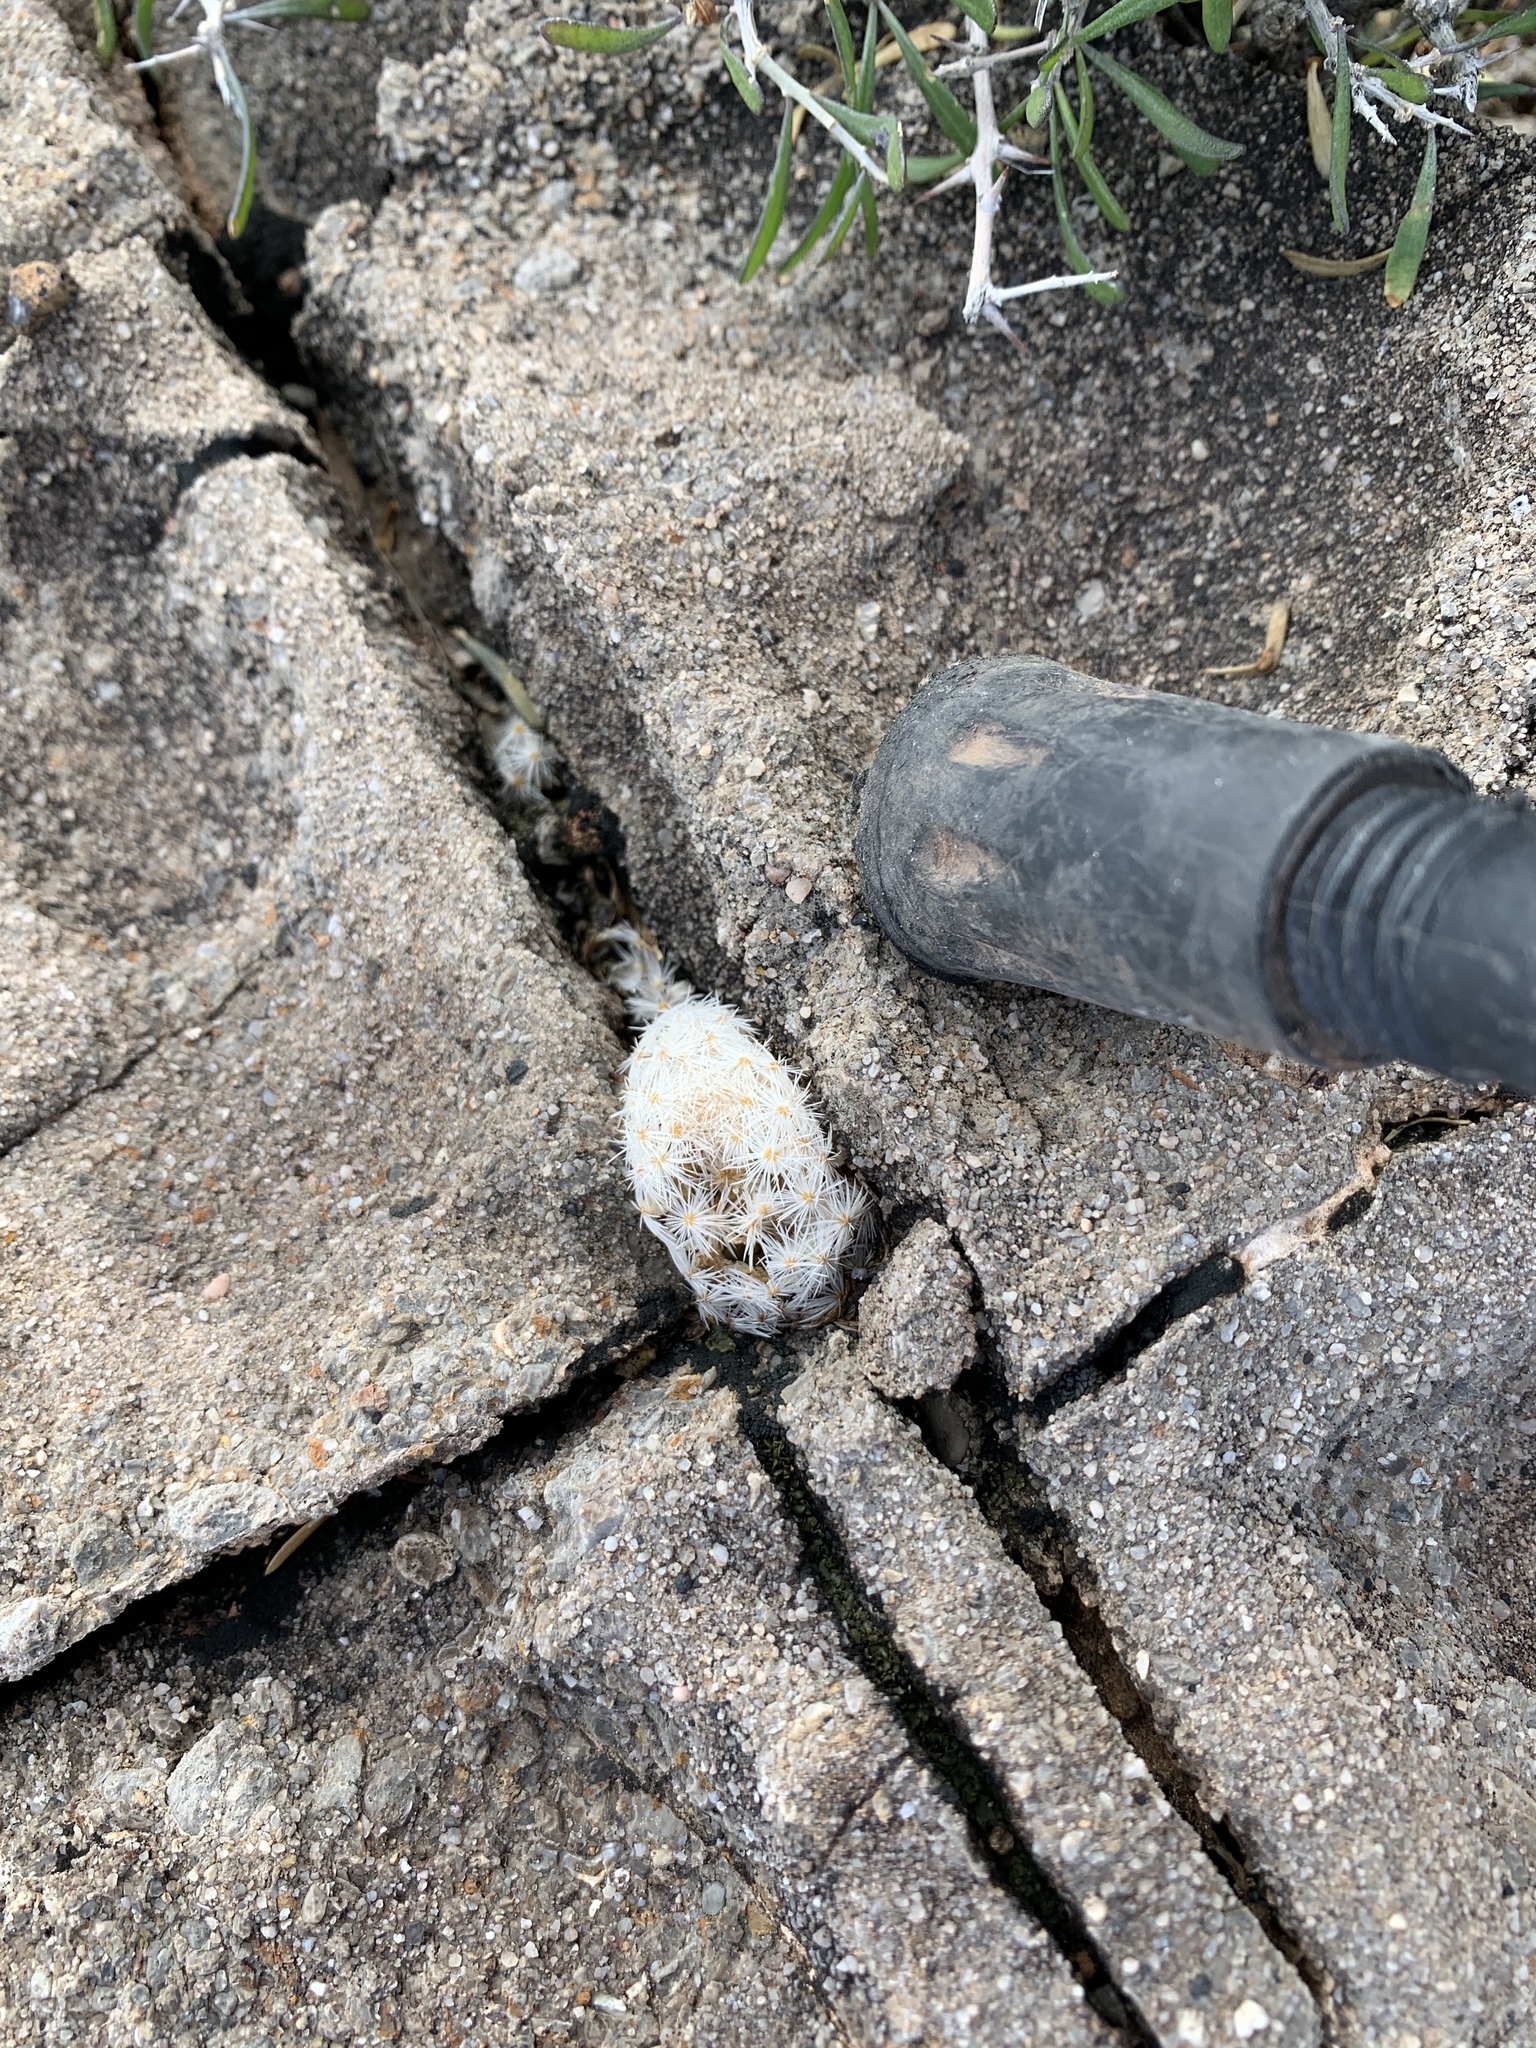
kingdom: Plantae
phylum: Tracheophyta
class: Magnoliopsida
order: Caryophyllales
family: Cactaceae
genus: Mammillaria
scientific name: Mammillaria lasiacantha
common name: Lace-spine nipple cactus
